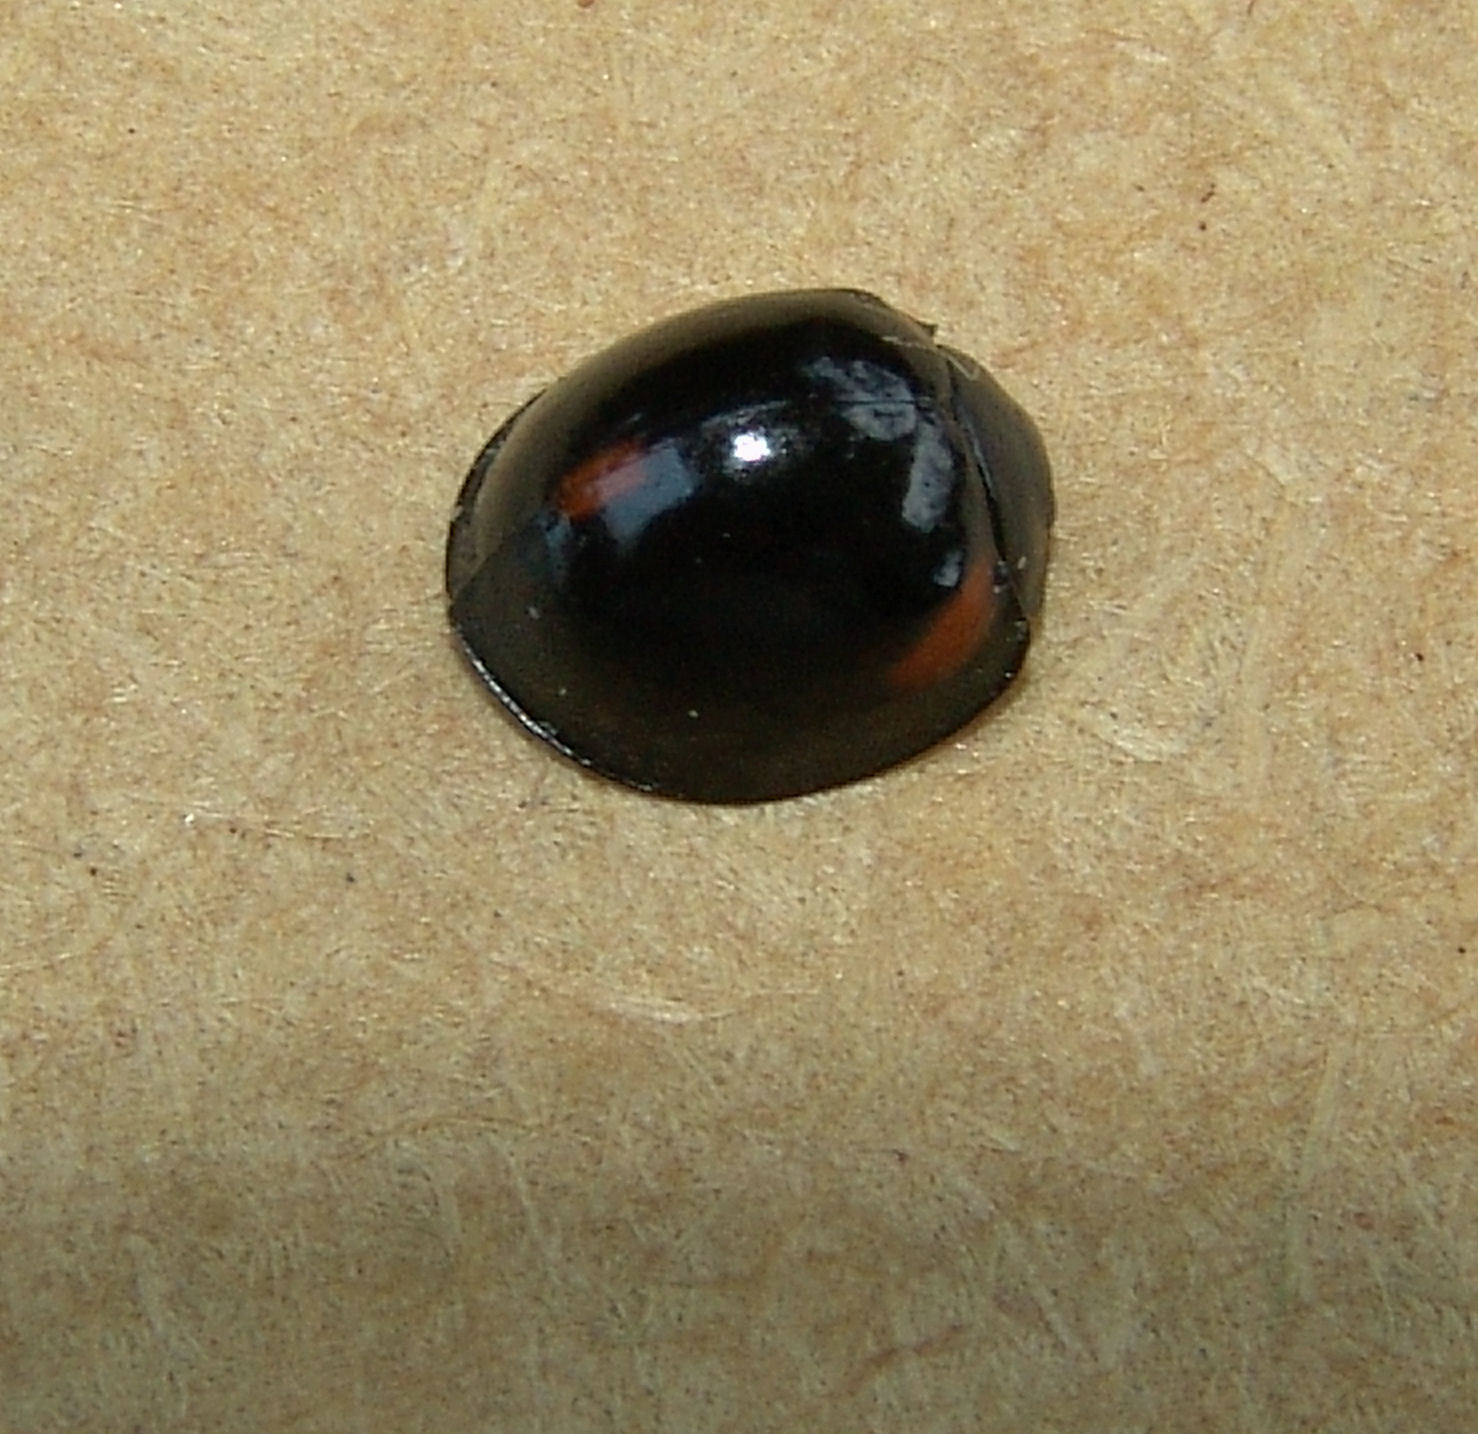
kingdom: Animalia
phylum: Arthropoda
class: Insecta
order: Coleoptera
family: Coccinellidae
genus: Axion
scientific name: Axion tripustulatum
